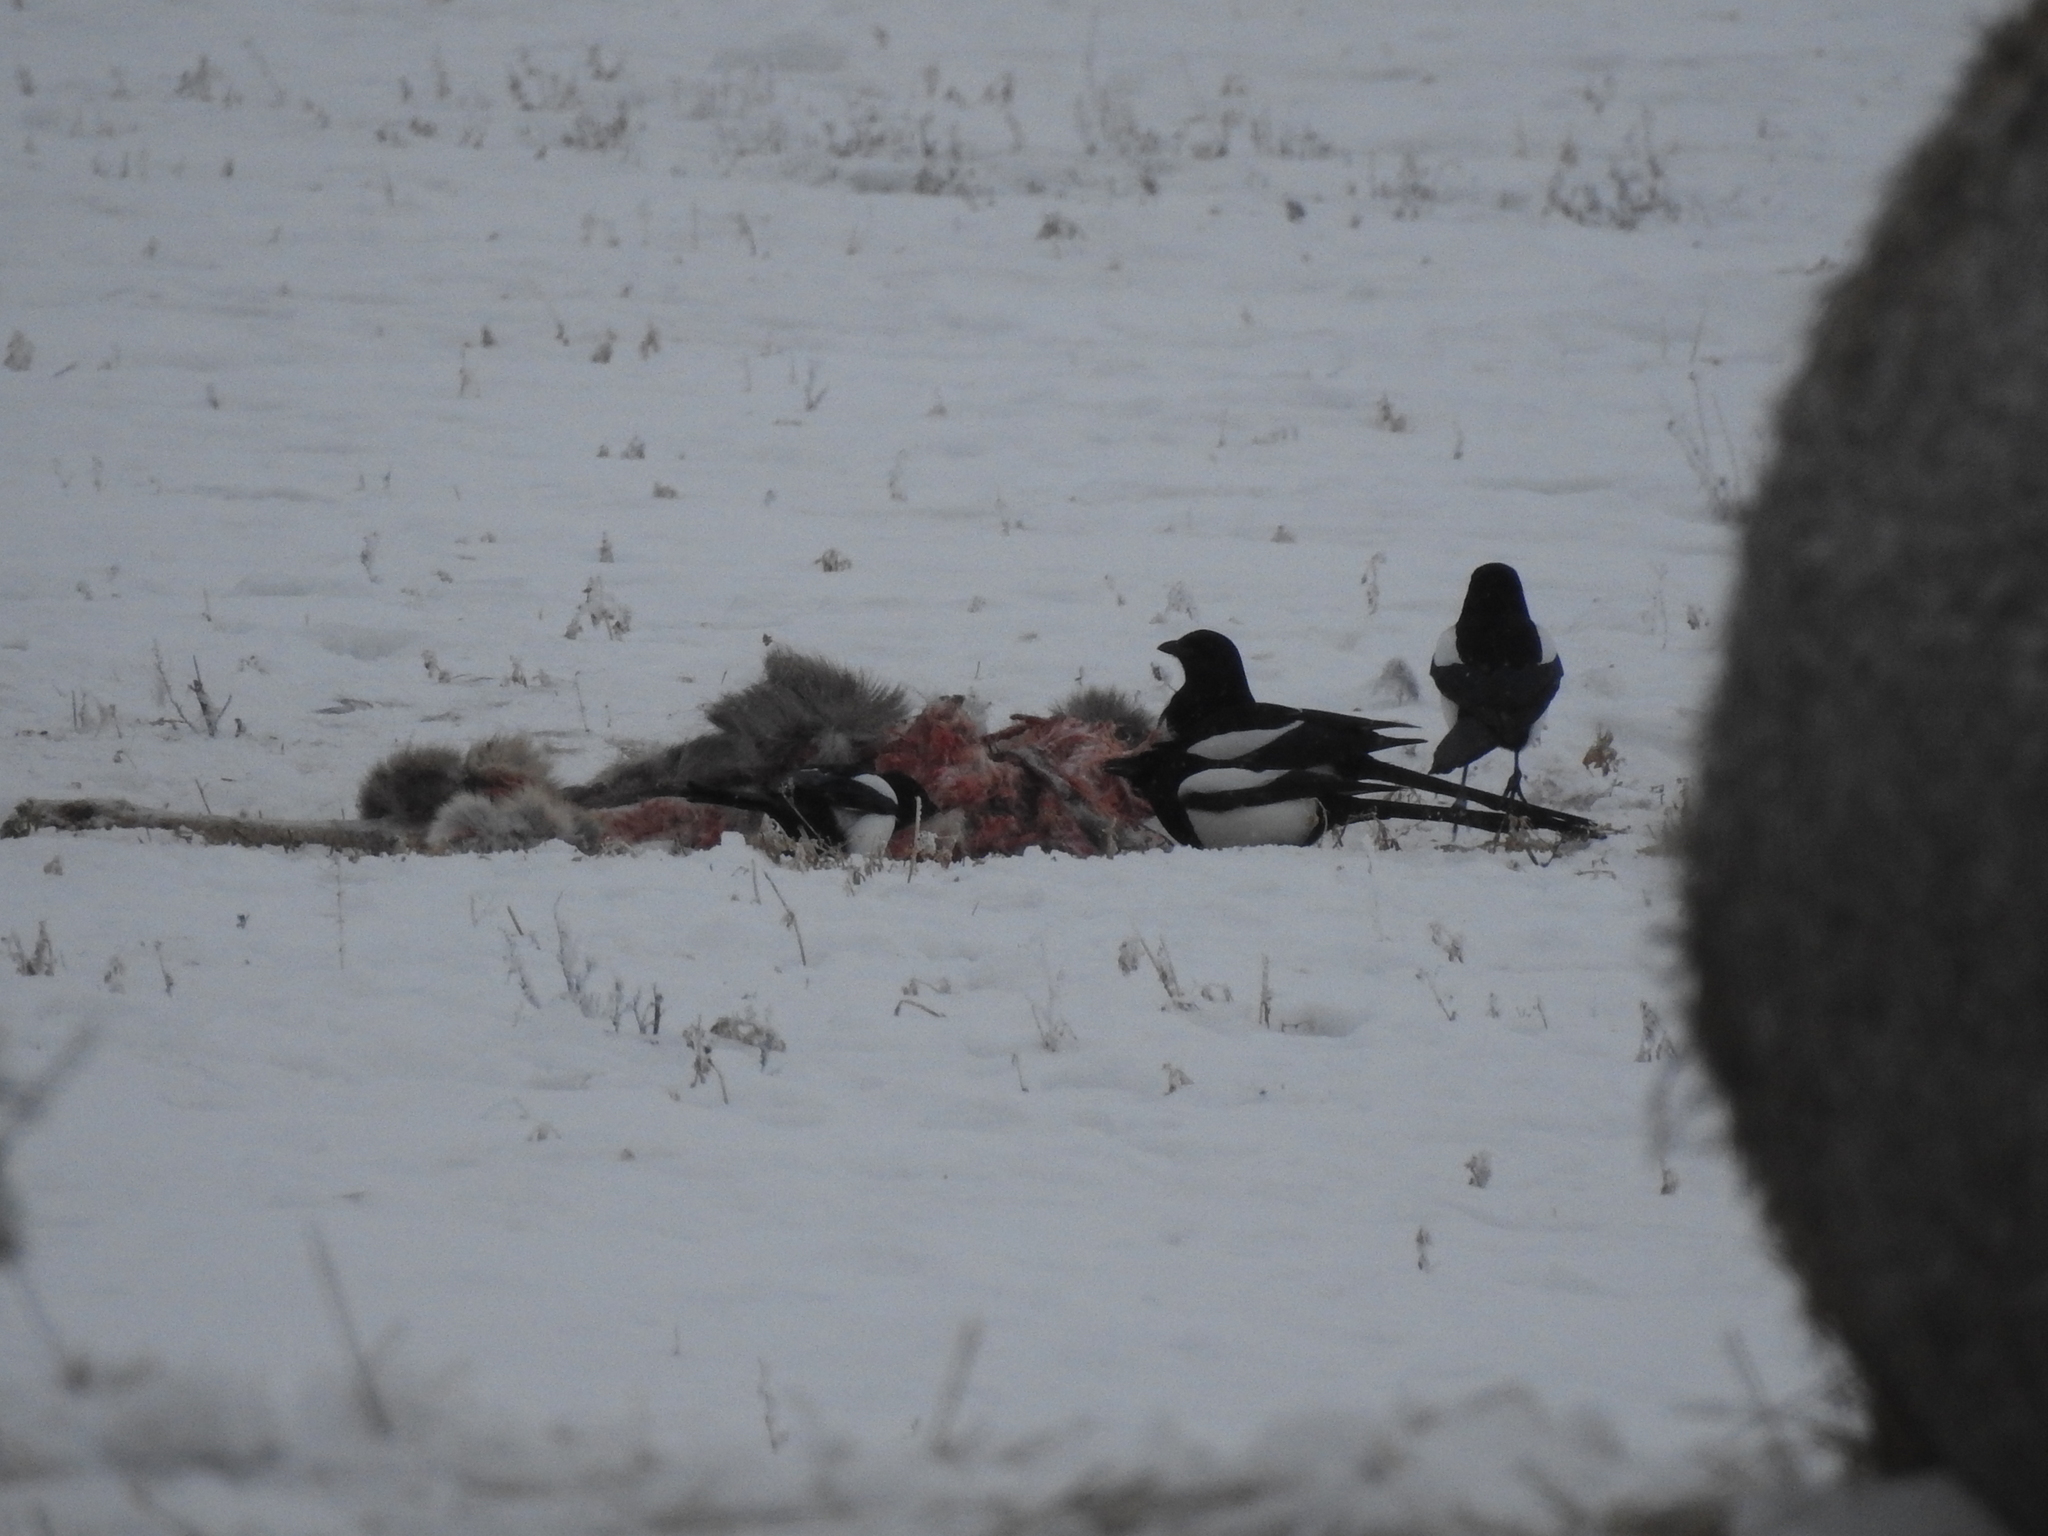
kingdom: Animalia
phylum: Chordata
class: Aves
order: Passeriformes
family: Corvidae
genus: Pica
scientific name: Pica pica
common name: Eurasian magpie
